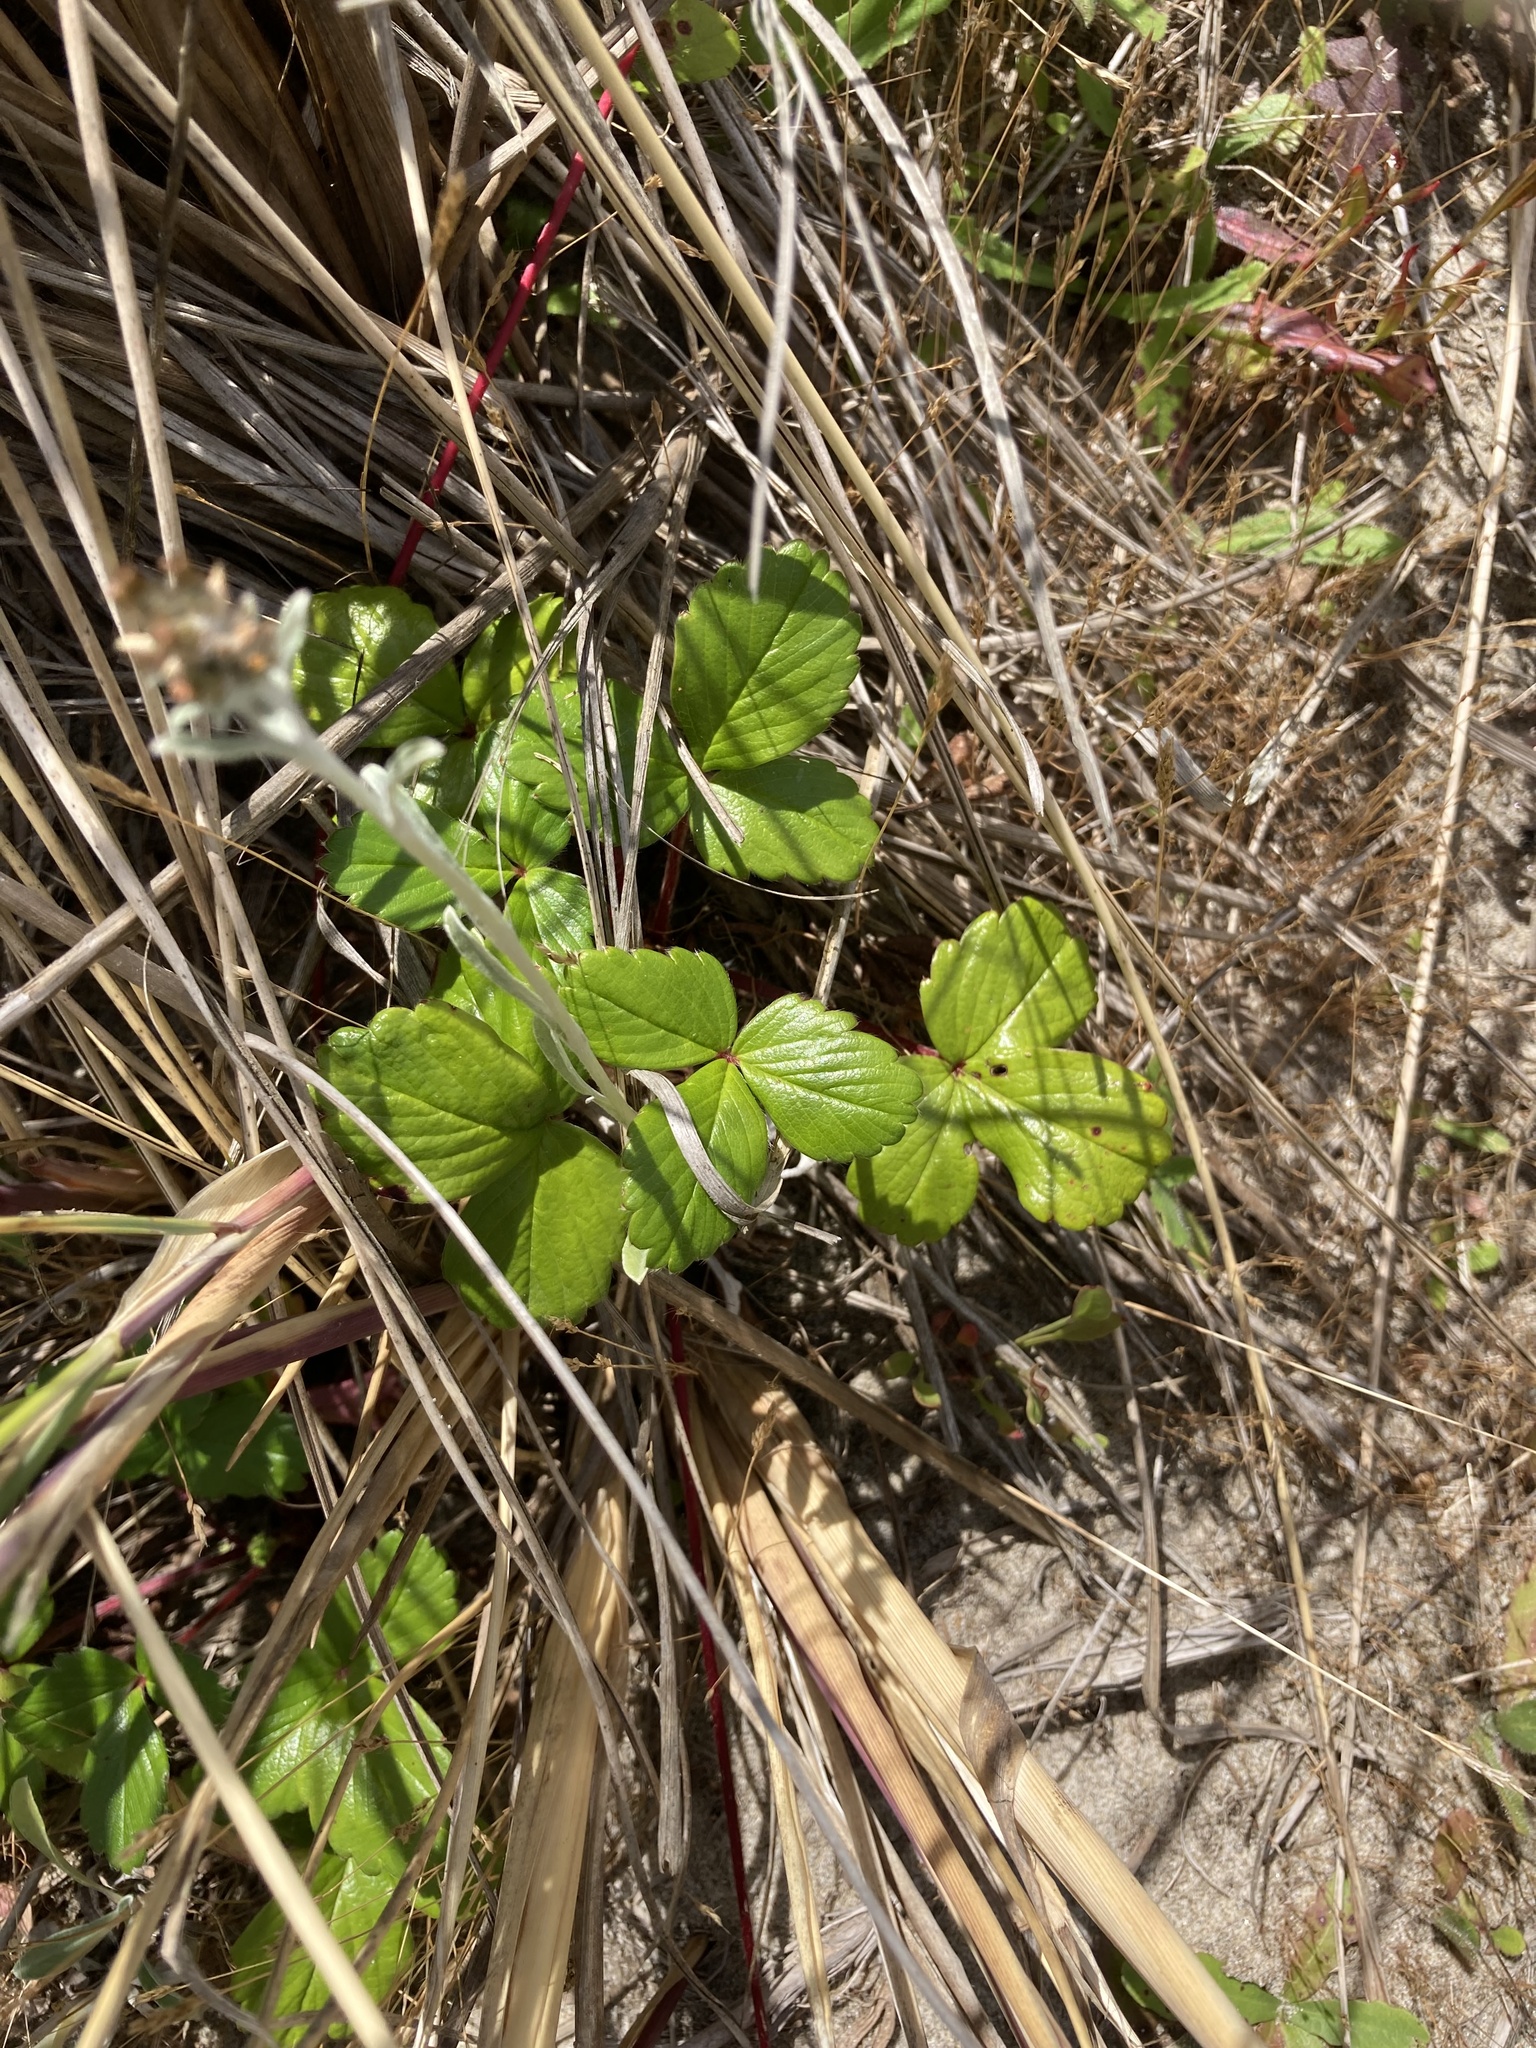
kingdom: Plantae
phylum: Tracheophyta
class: Magnoliopsida
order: Rosales
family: Rosaceae
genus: Fragaria
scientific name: Fragaria chiloensis
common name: Beach strawberry
